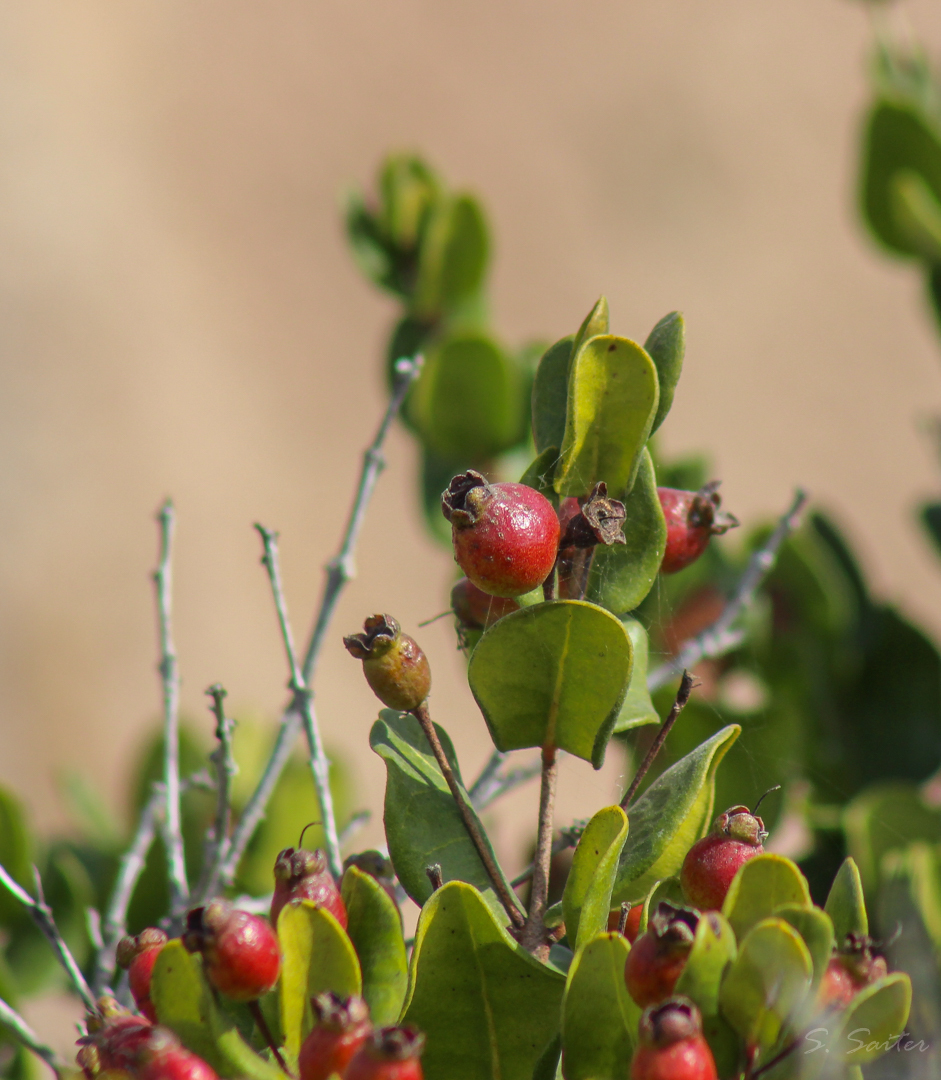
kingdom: Plantae
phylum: Tracheophyta
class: Magnoliopsida
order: Myrtales
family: Myrtaceae
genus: Myrcianthes
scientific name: Myrcianthes coquimbensis
